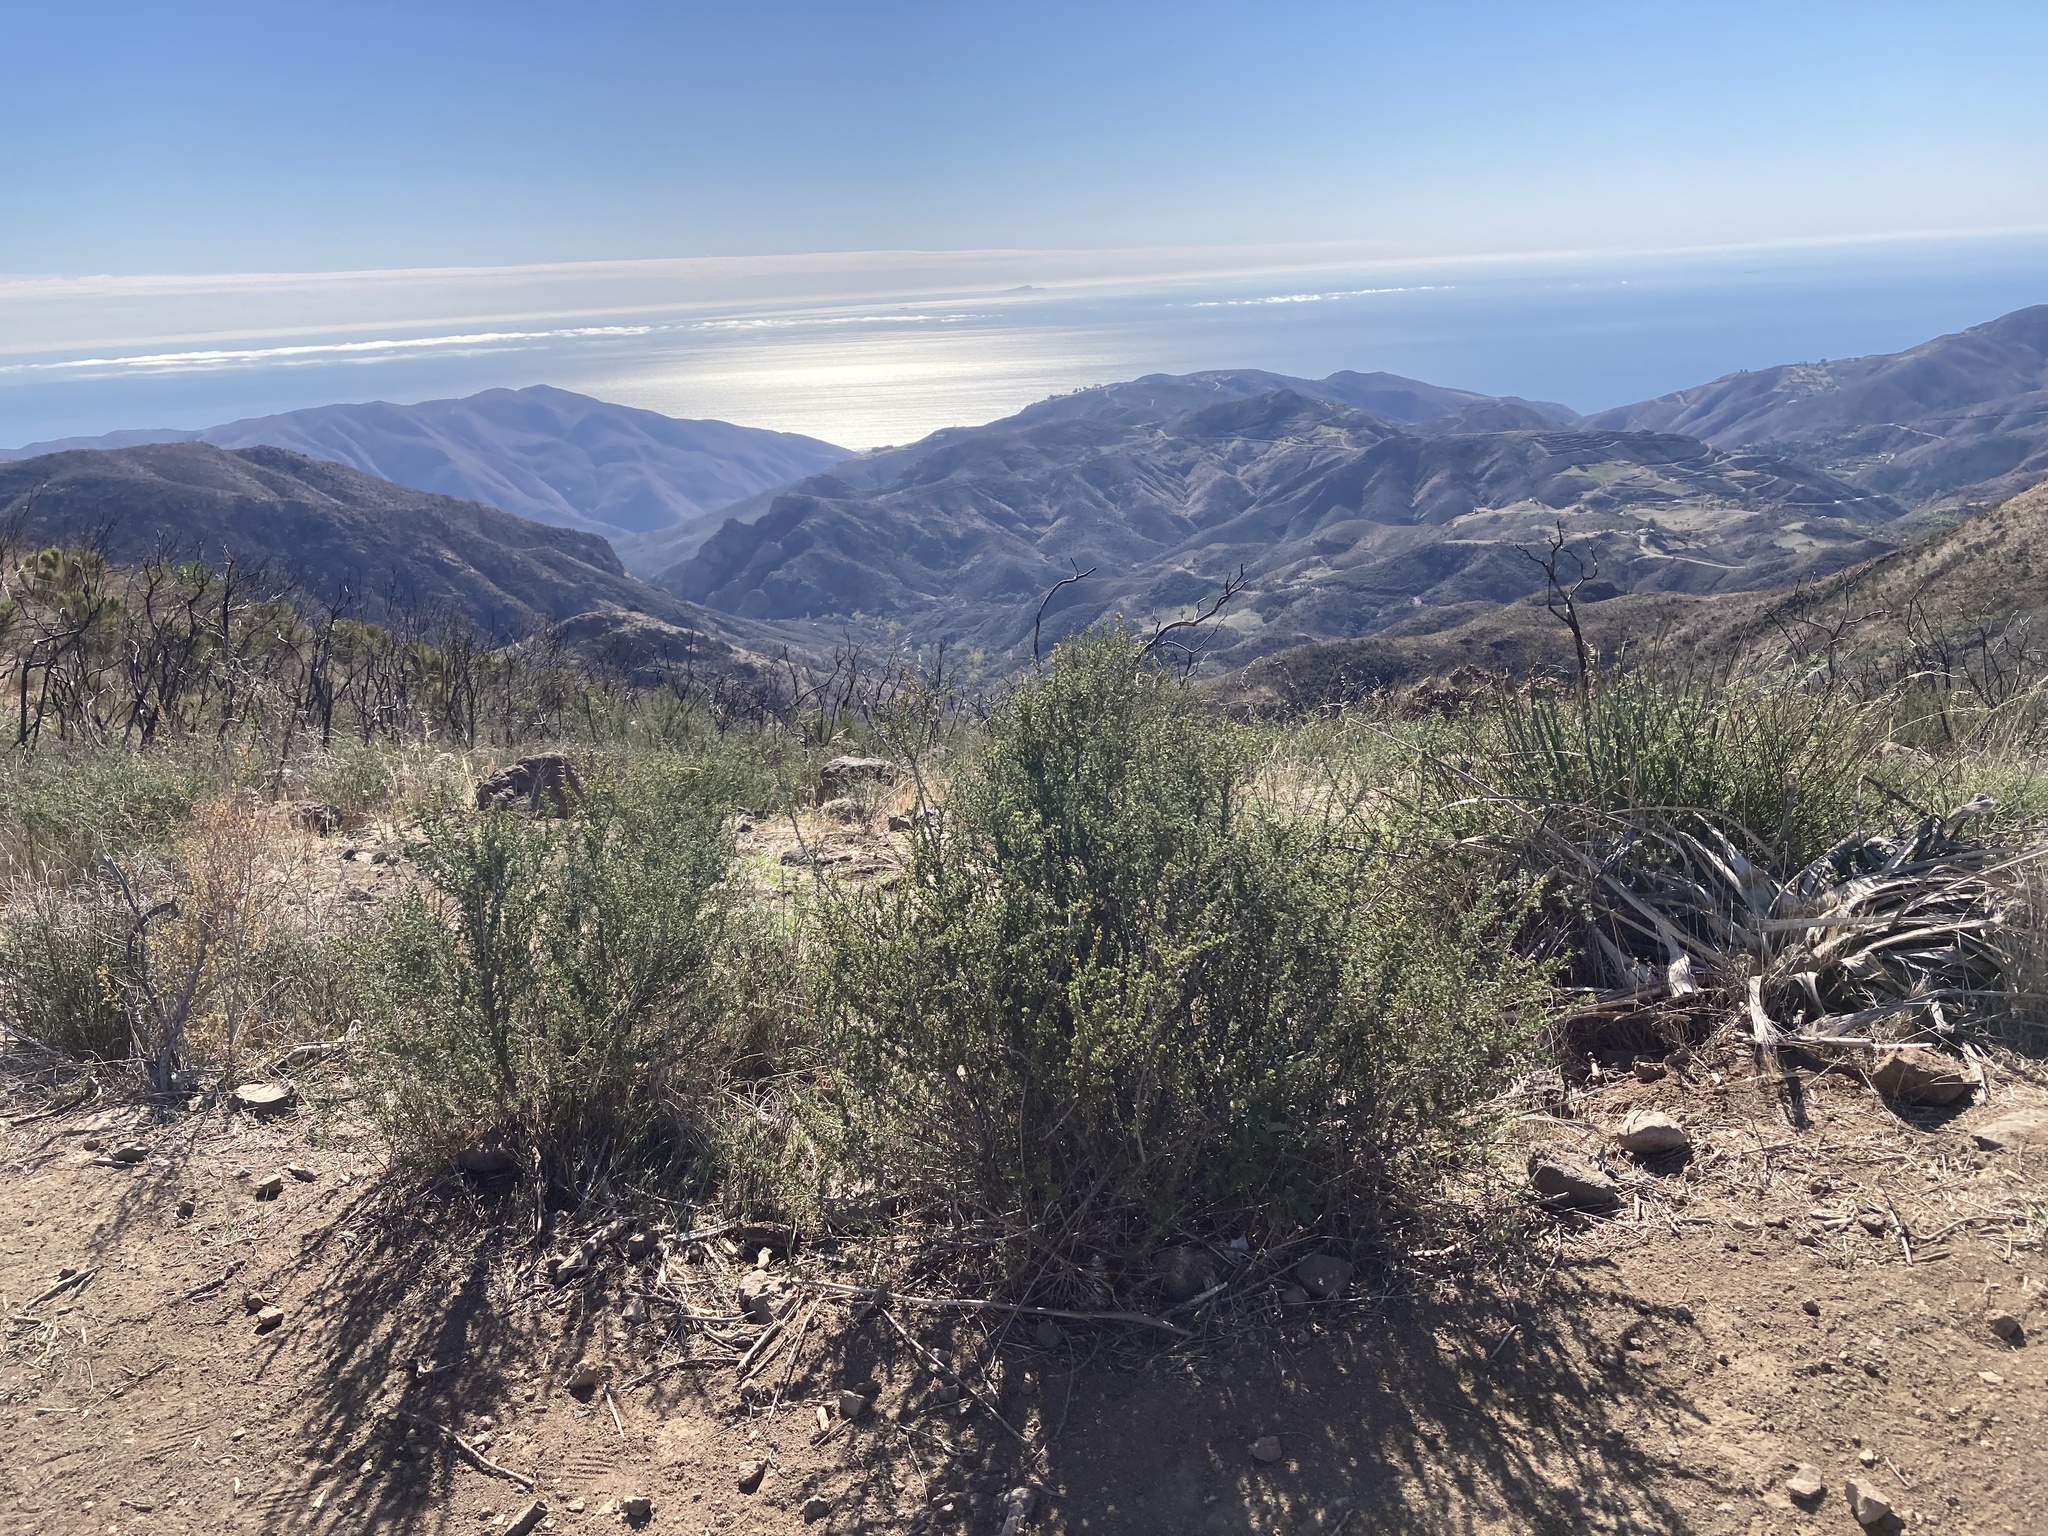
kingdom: Plantae
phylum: Tracheophyta
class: Magnoliopsida
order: Rosales
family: Rosaceae
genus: Adenostoma
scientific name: Adenostoma fasciculatum
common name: Chamise
